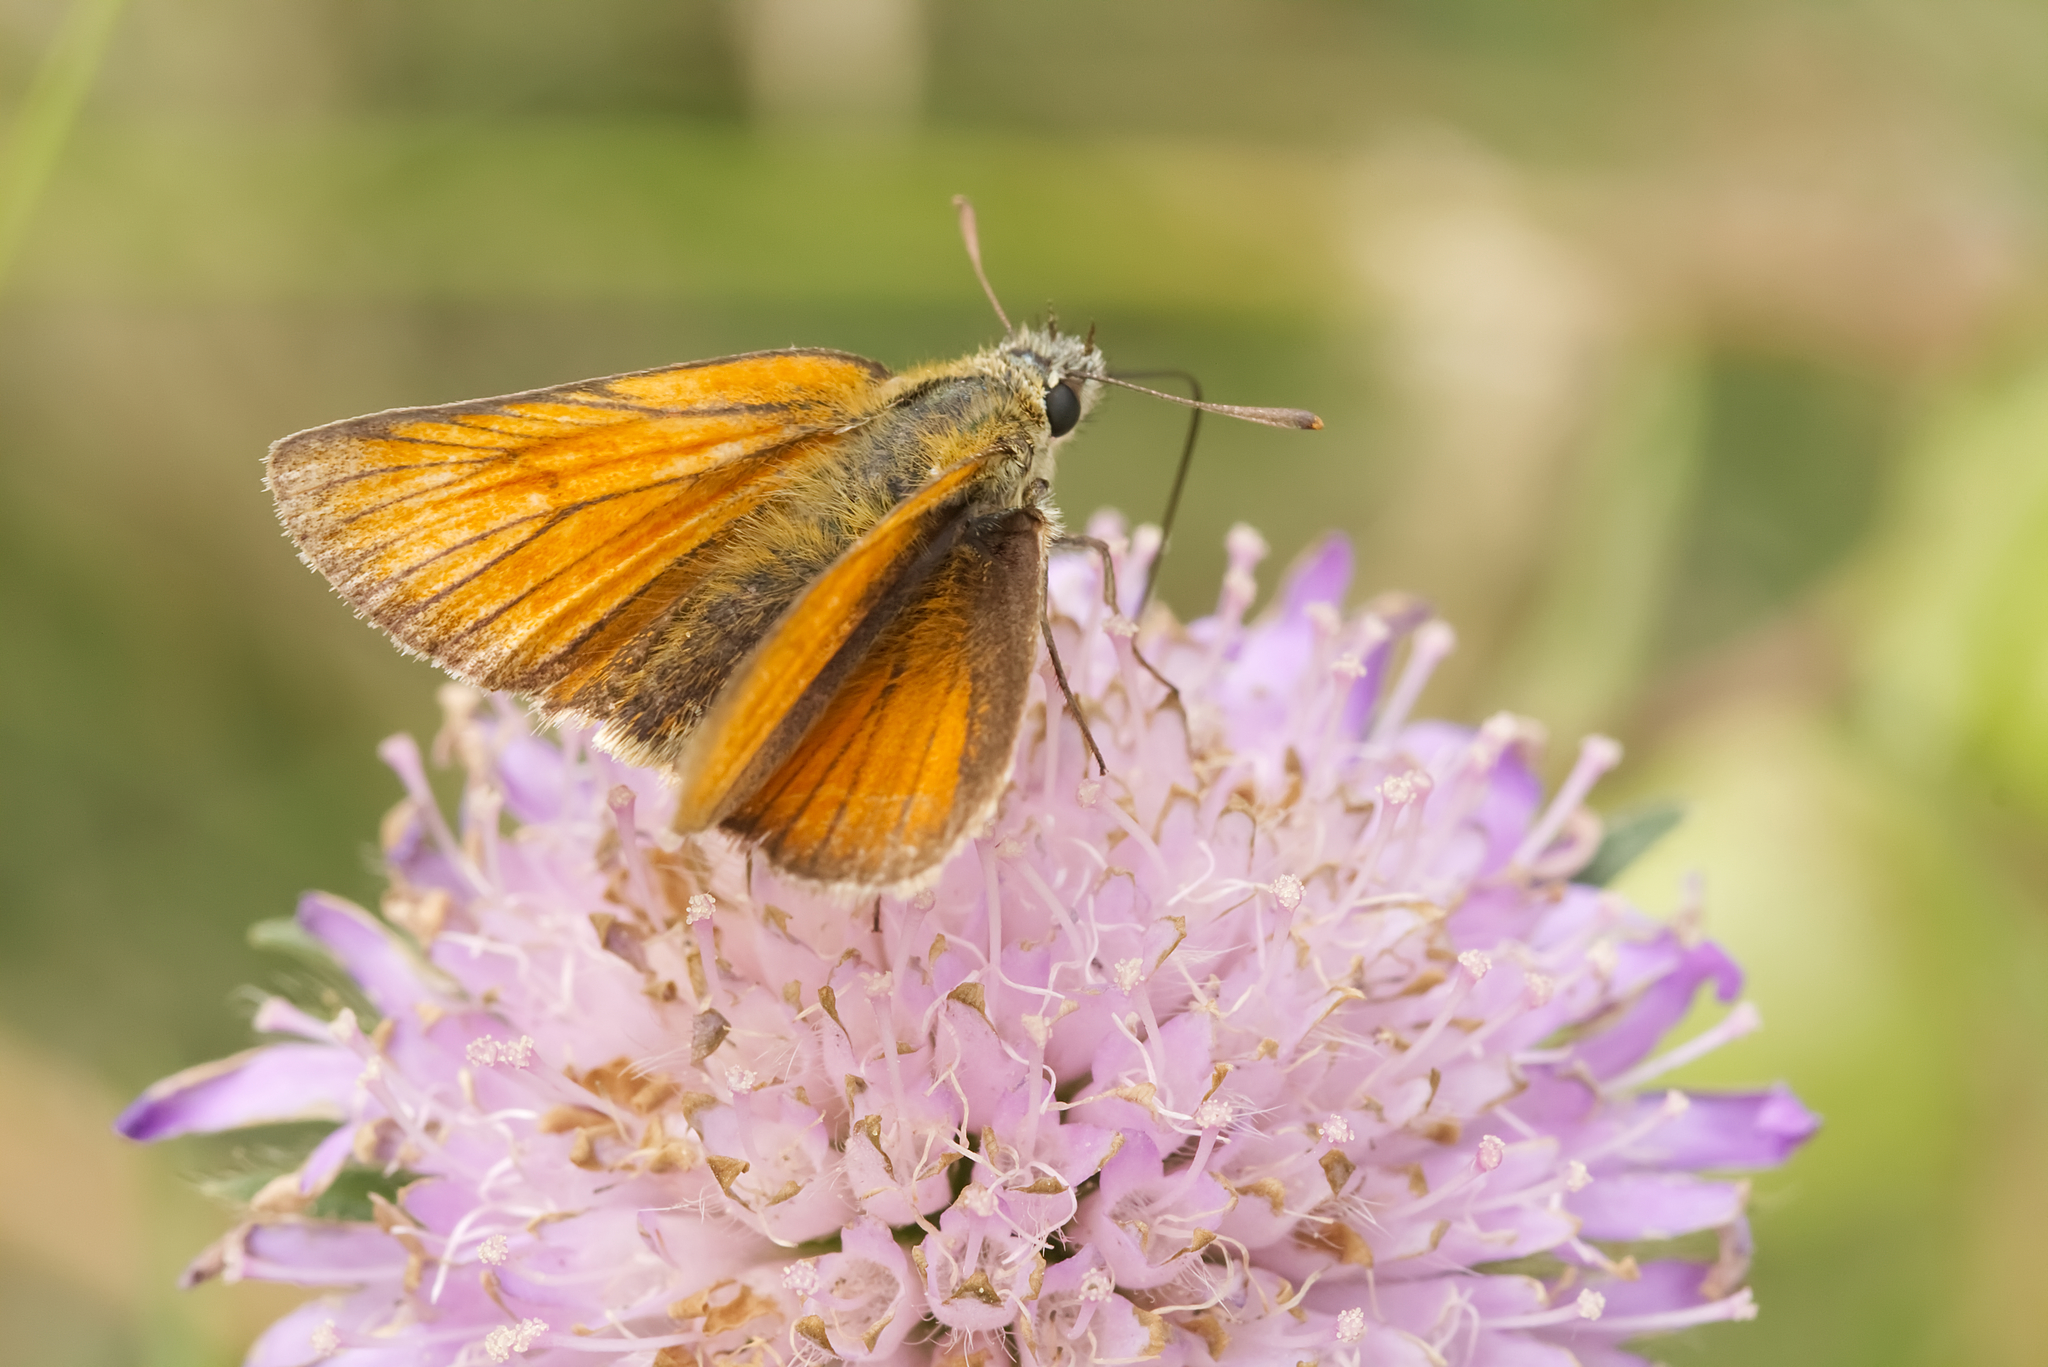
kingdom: Animalia
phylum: Arthropoda
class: Insecta
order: Lepidoptera
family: Hesperiidae
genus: Thymelicus
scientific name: Thymelicus sylvestris
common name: Small skipper
